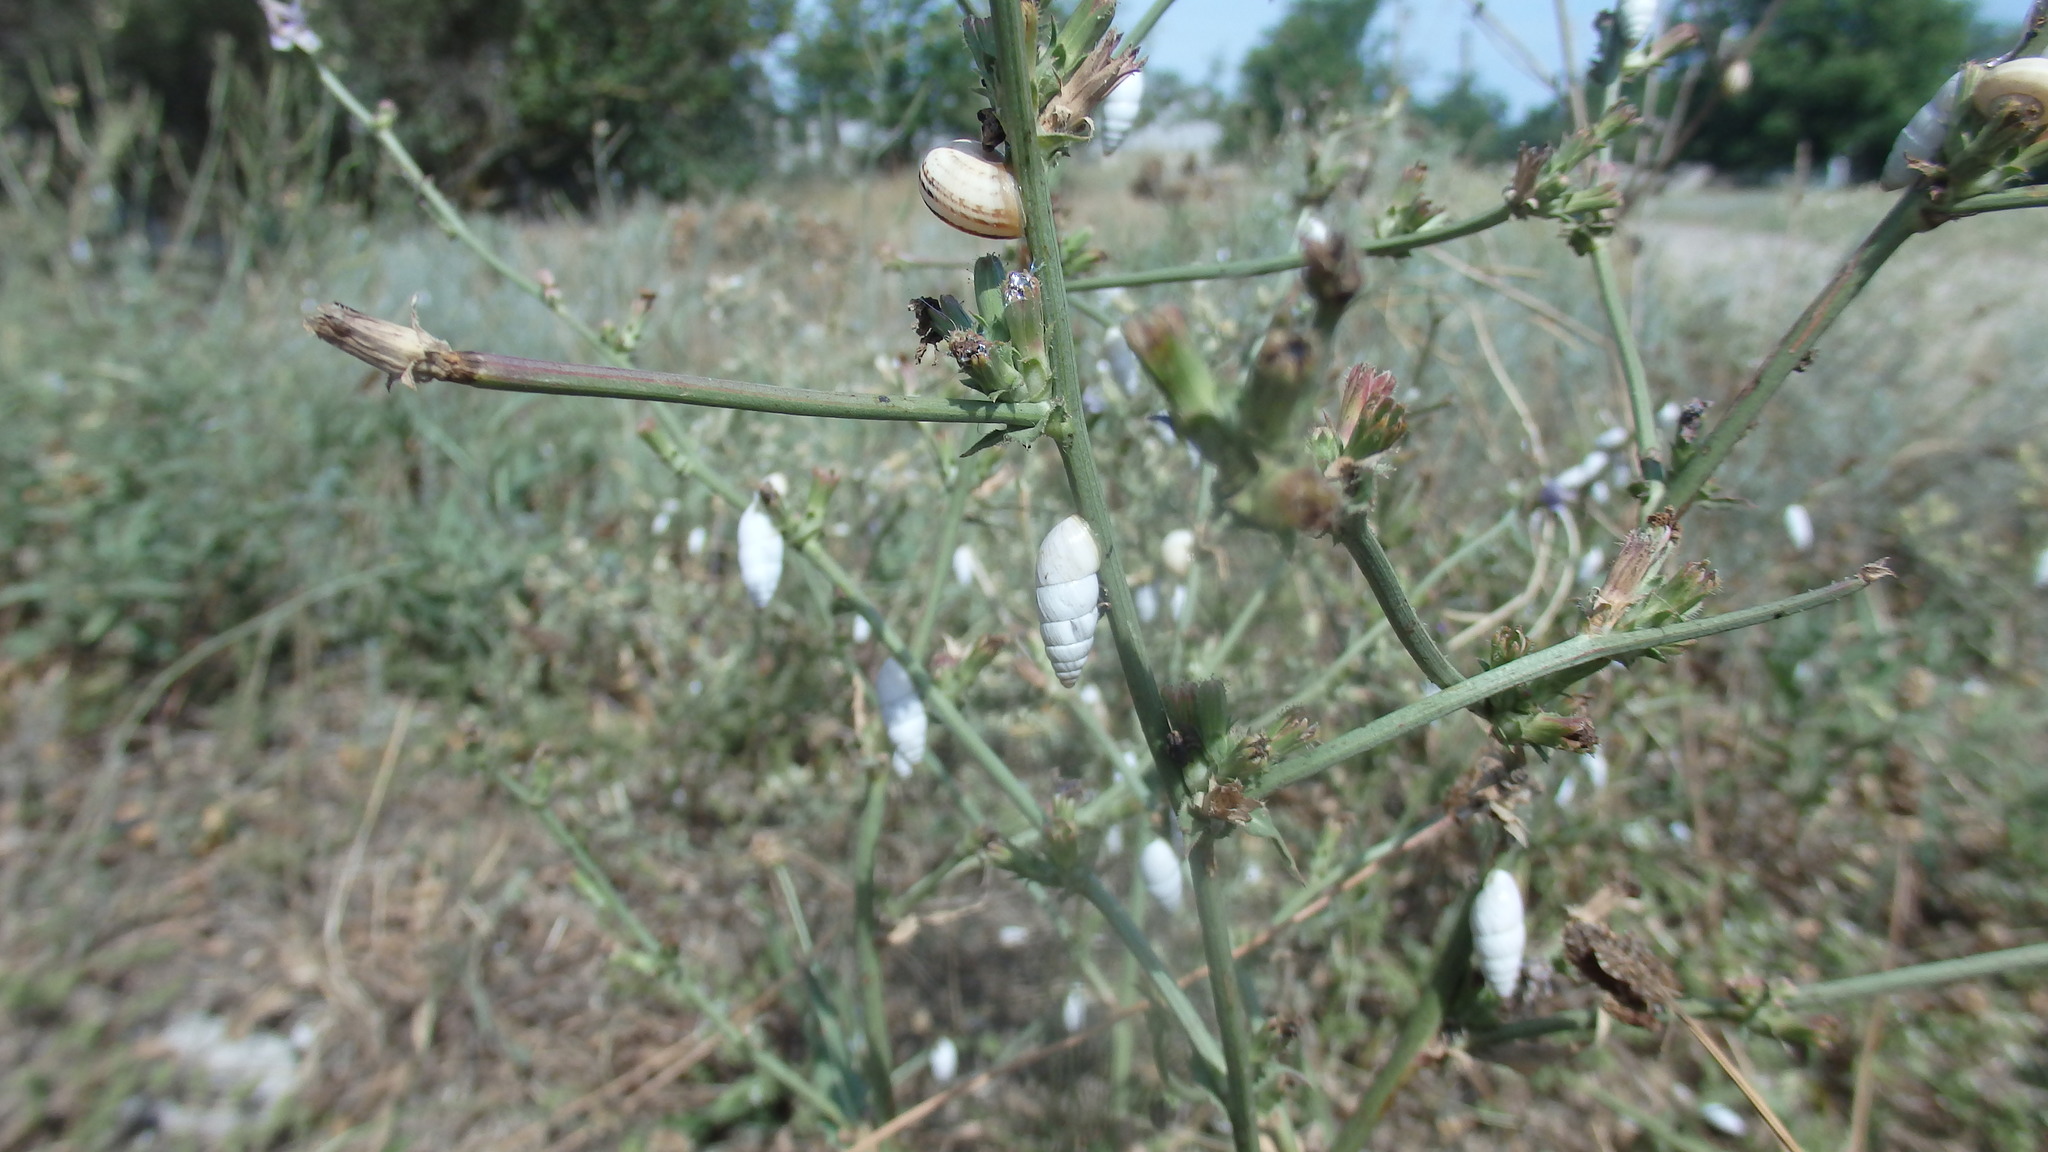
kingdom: Animalia
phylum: Mollusca
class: Gastropoda
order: Stylommatophora
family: Enidae
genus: Brephulopsis
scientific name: Brephulopsis cylindrica
